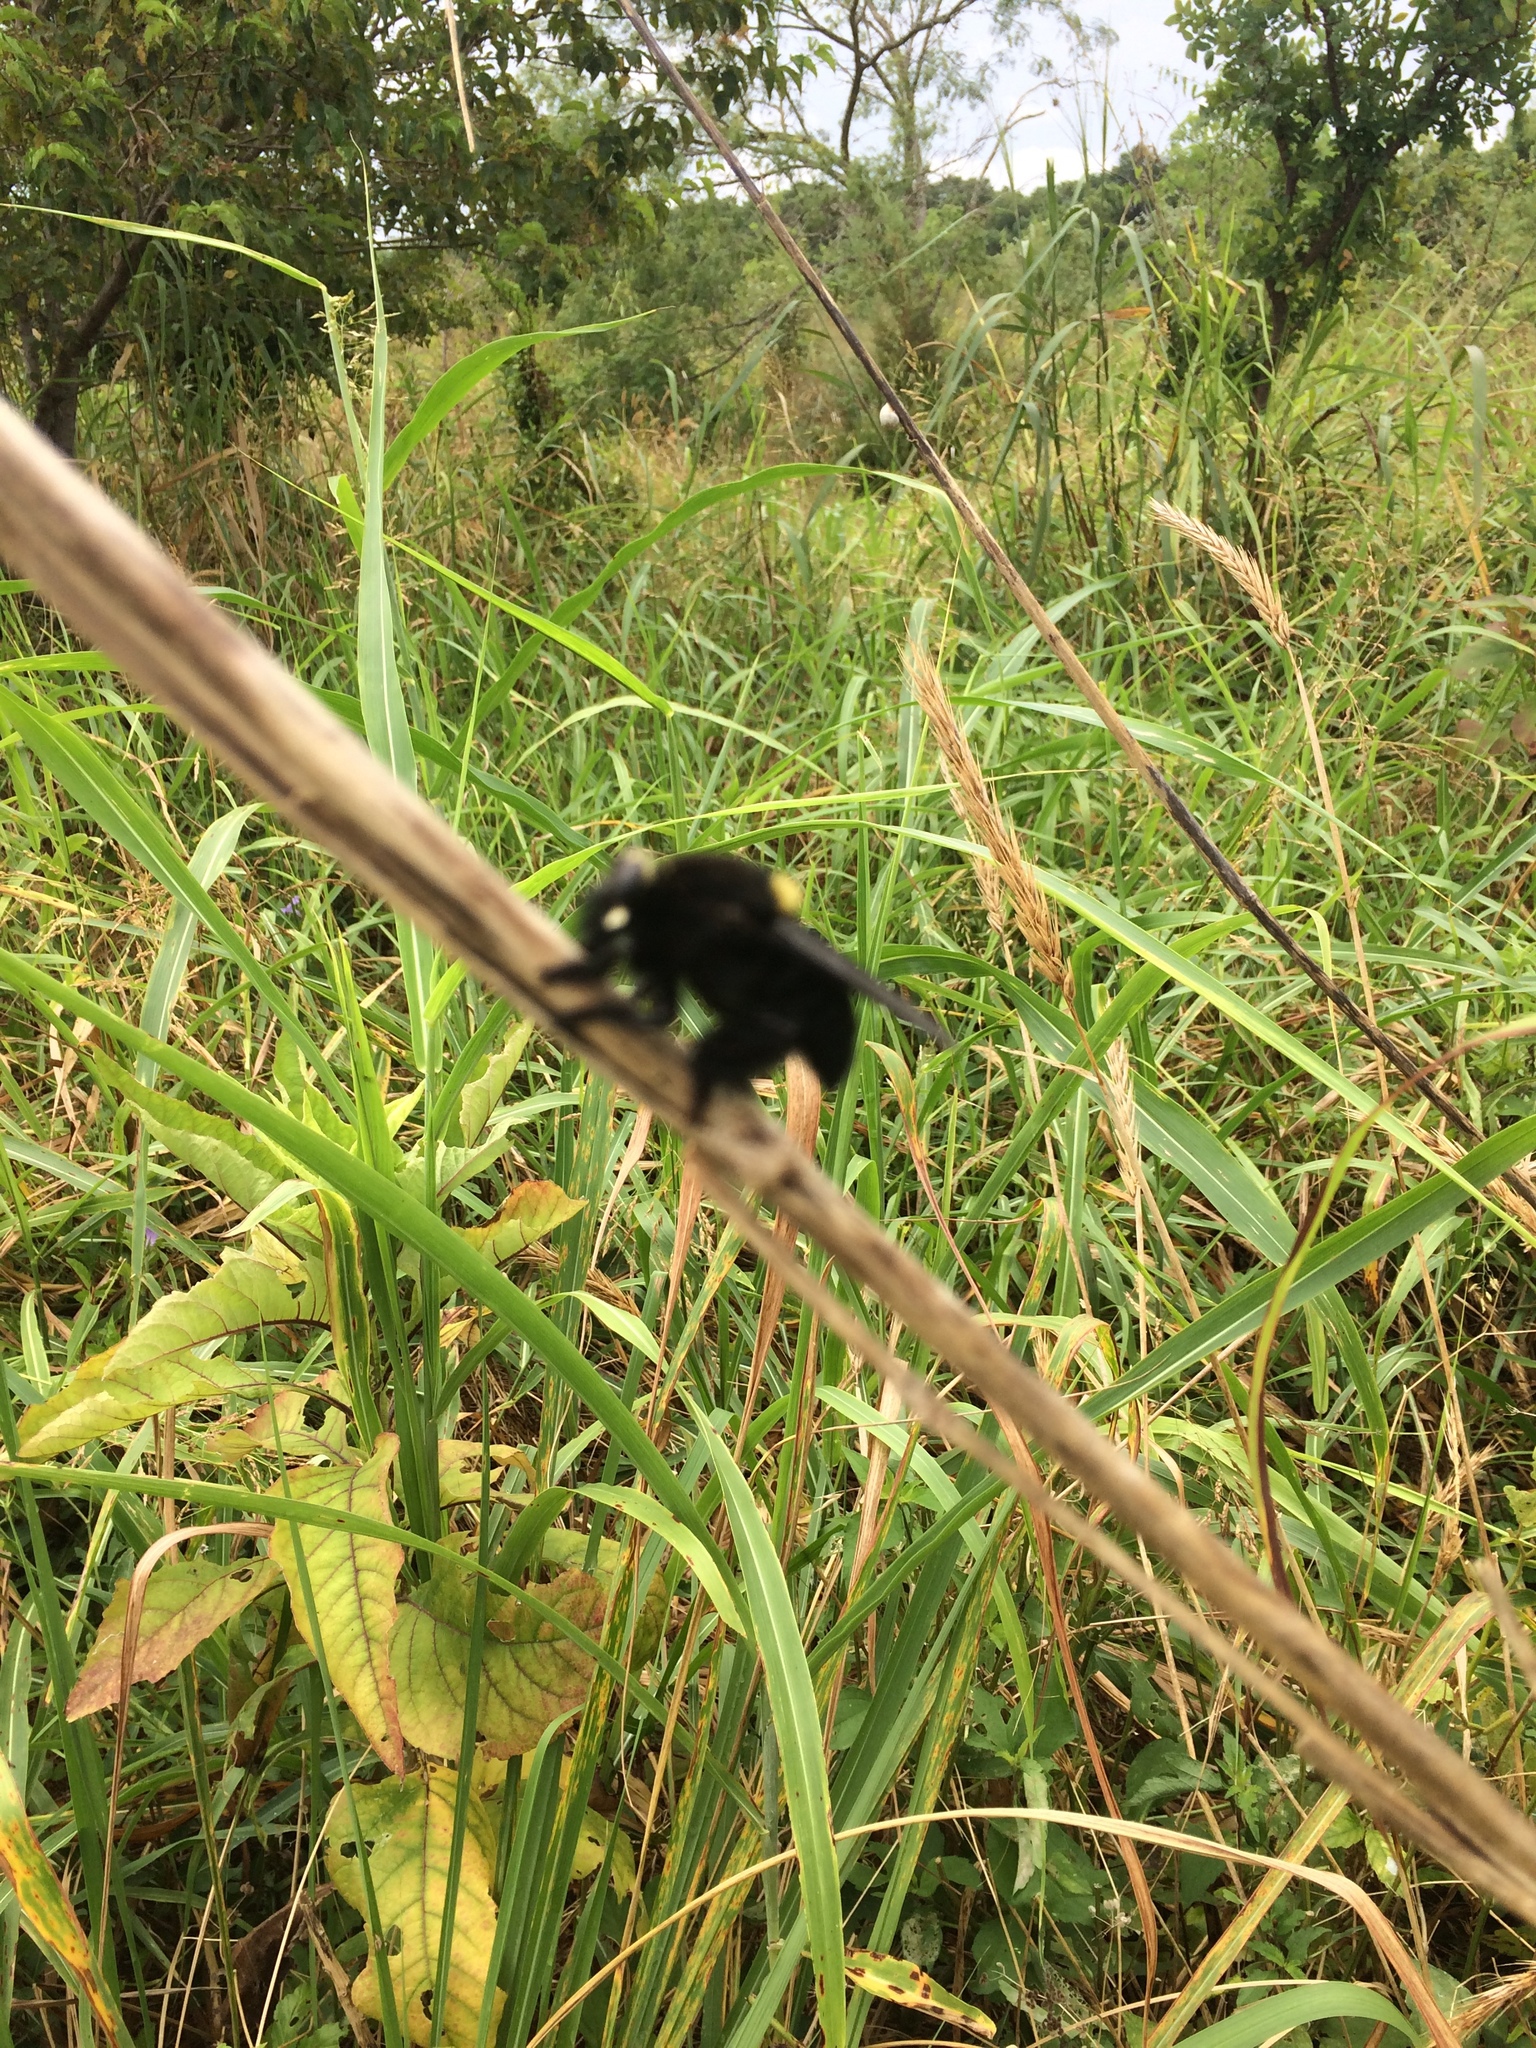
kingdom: Animalia
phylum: Arthropoda
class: Insecta
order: Diptera
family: Asilidae
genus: Mallophora
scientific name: Mallophora leschenaultii
